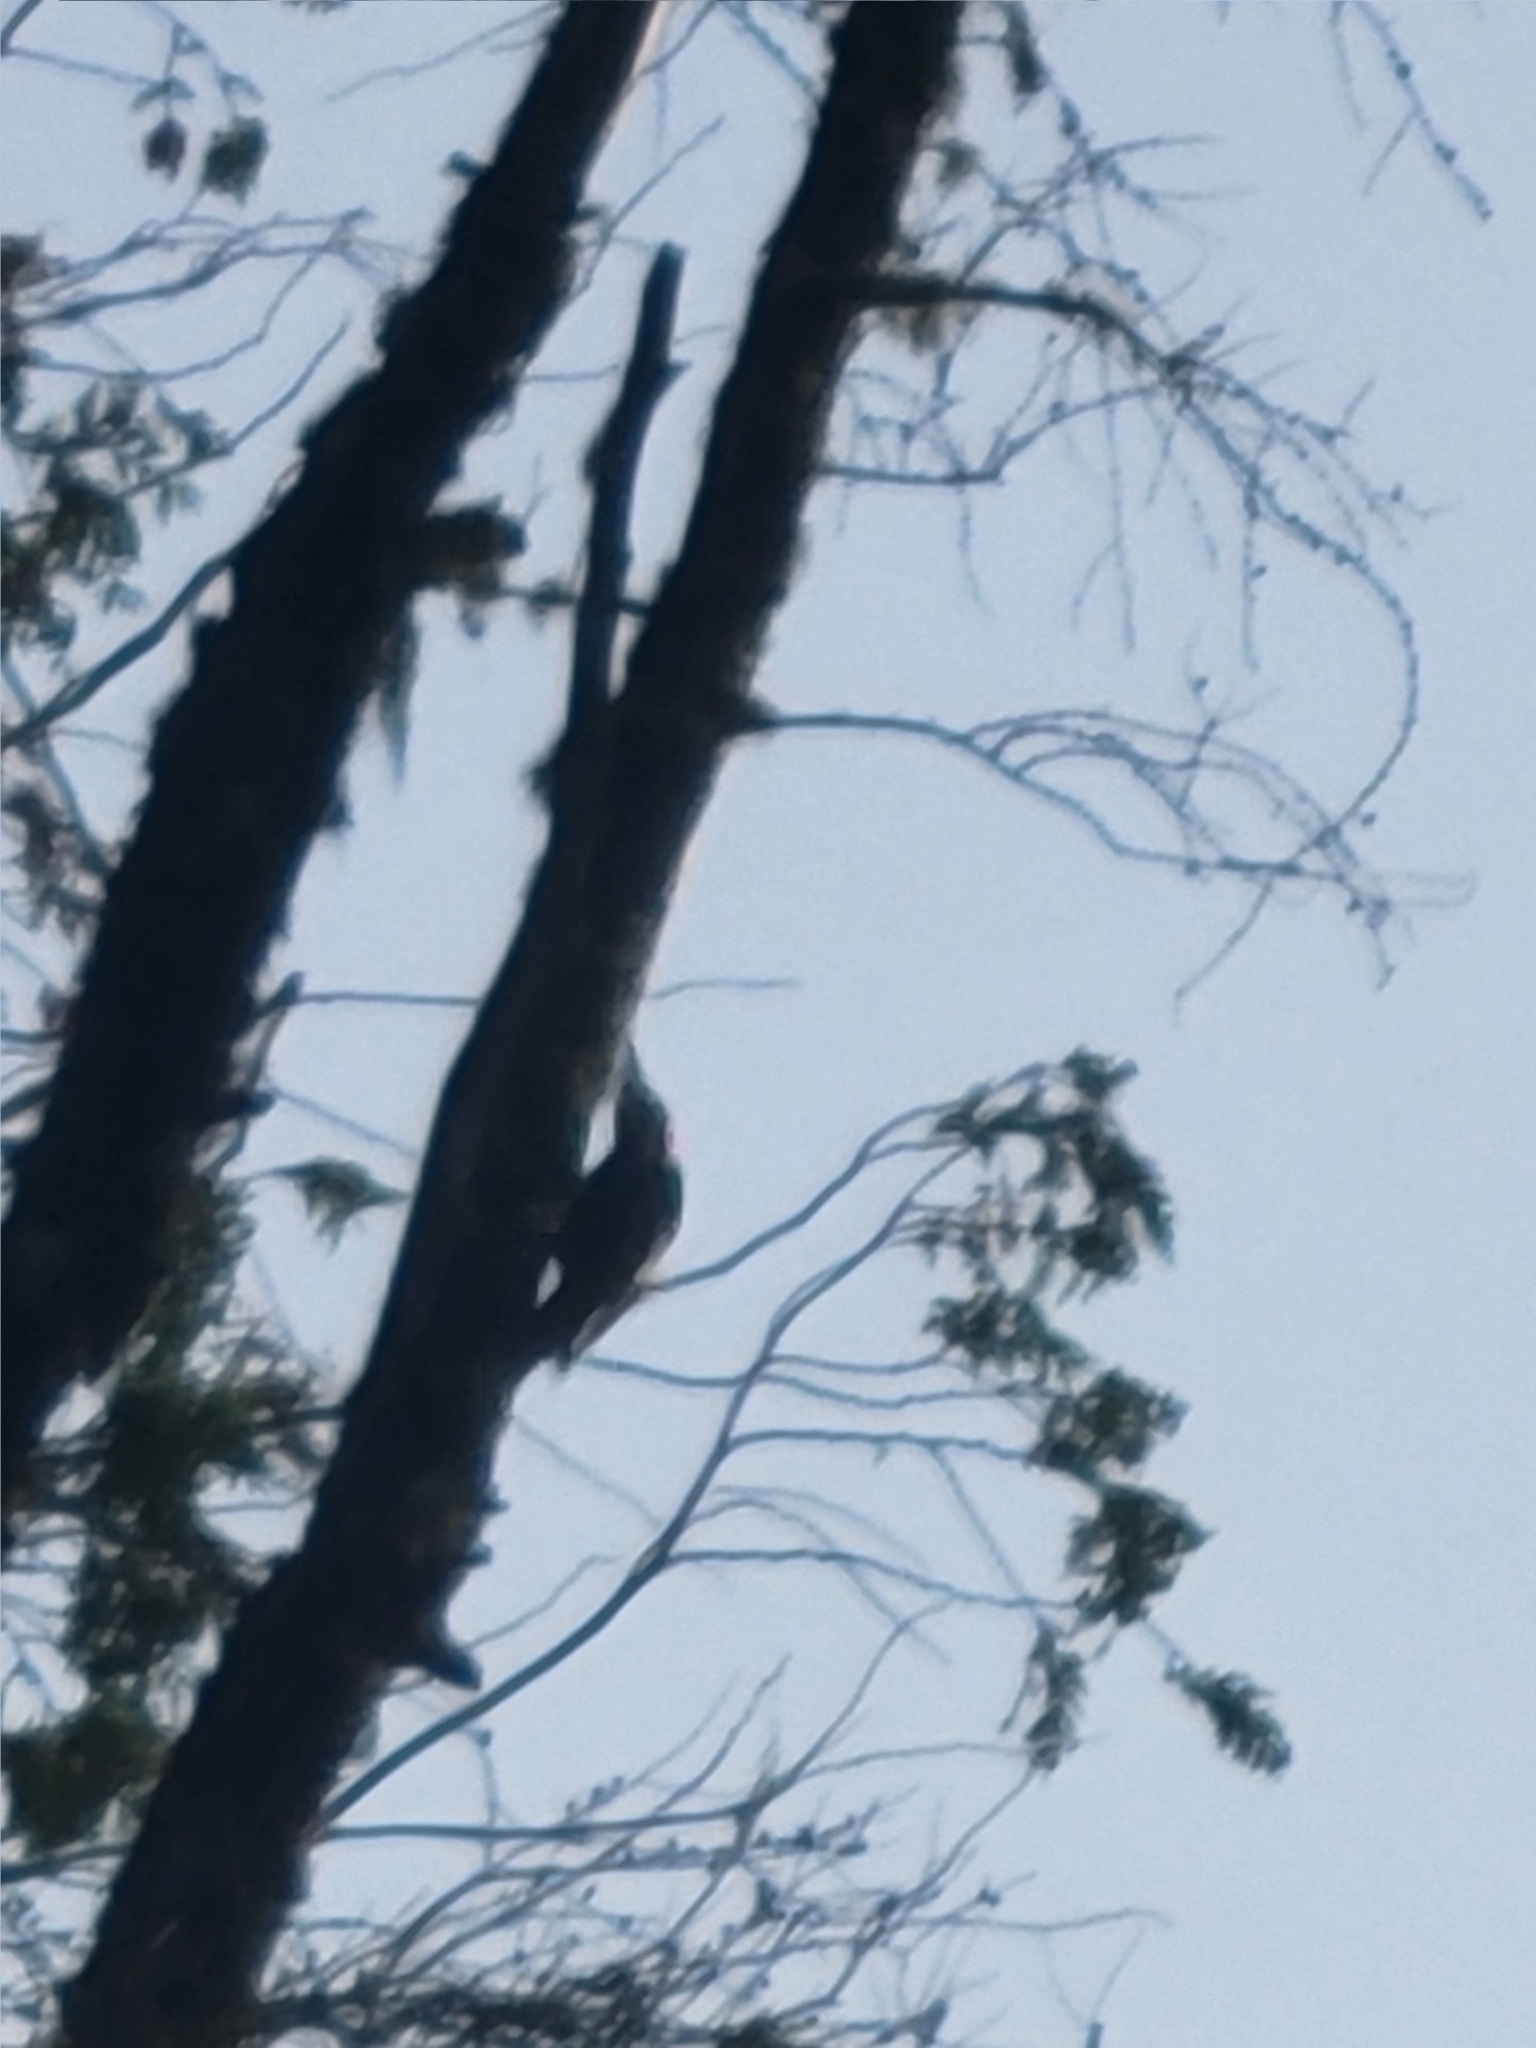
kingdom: Animalia
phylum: Chordata
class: Aves
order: Piciformes
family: Picidae
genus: Dryocopus
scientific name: Dryocopus pileatus
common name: Pileated woodpecker
